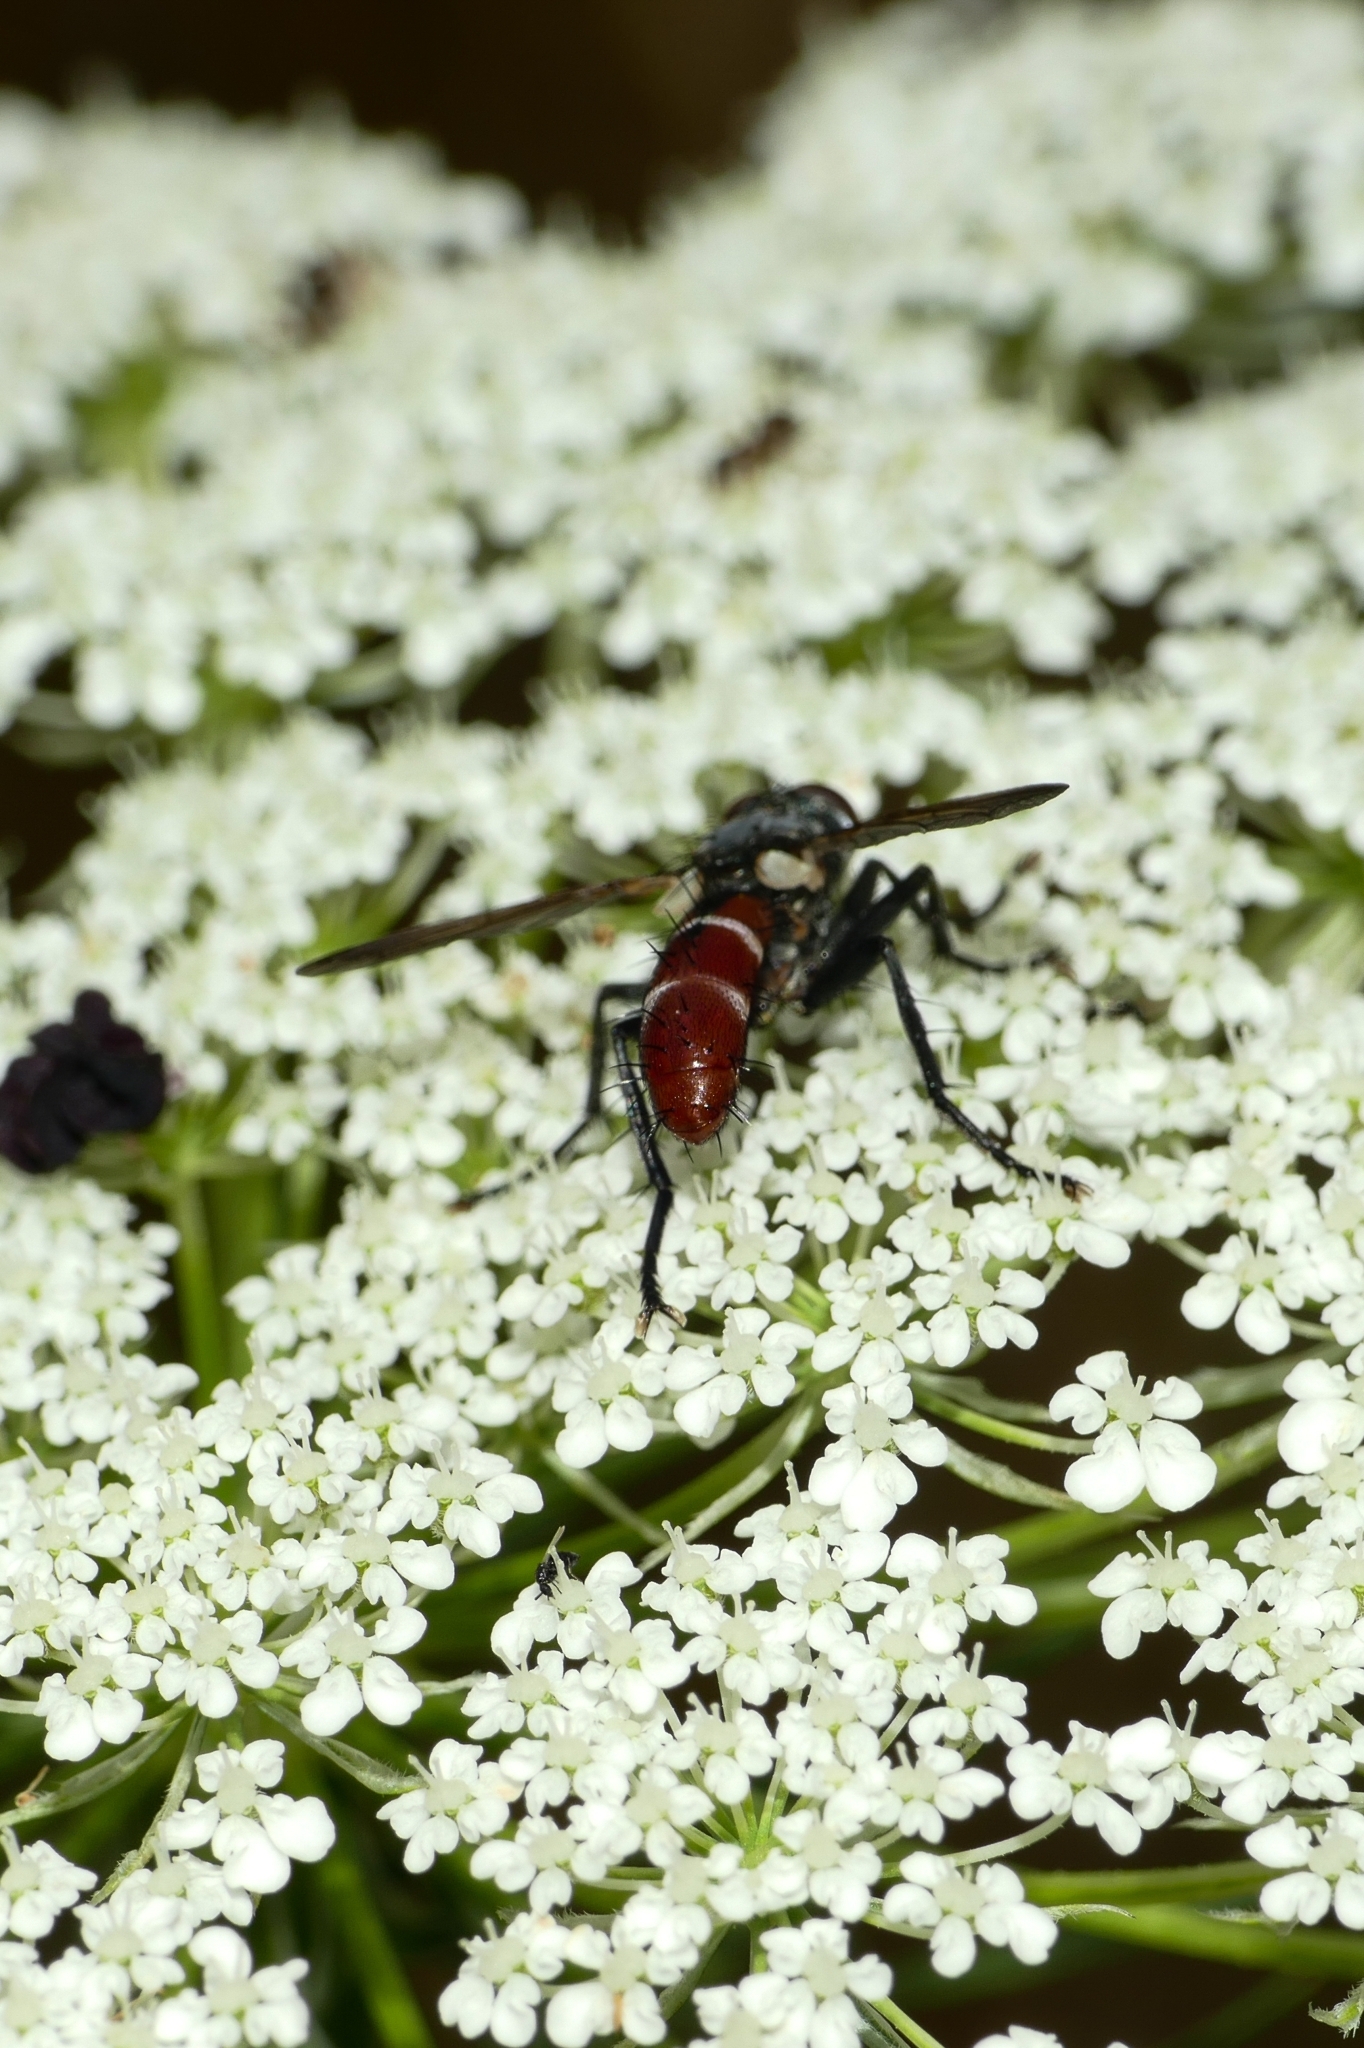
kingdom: Animalia
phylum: Arthropoda
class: Insecta
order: Diptera
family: Tachinidae
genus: Cylindromyia
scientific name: Cylindromyia bicolor
